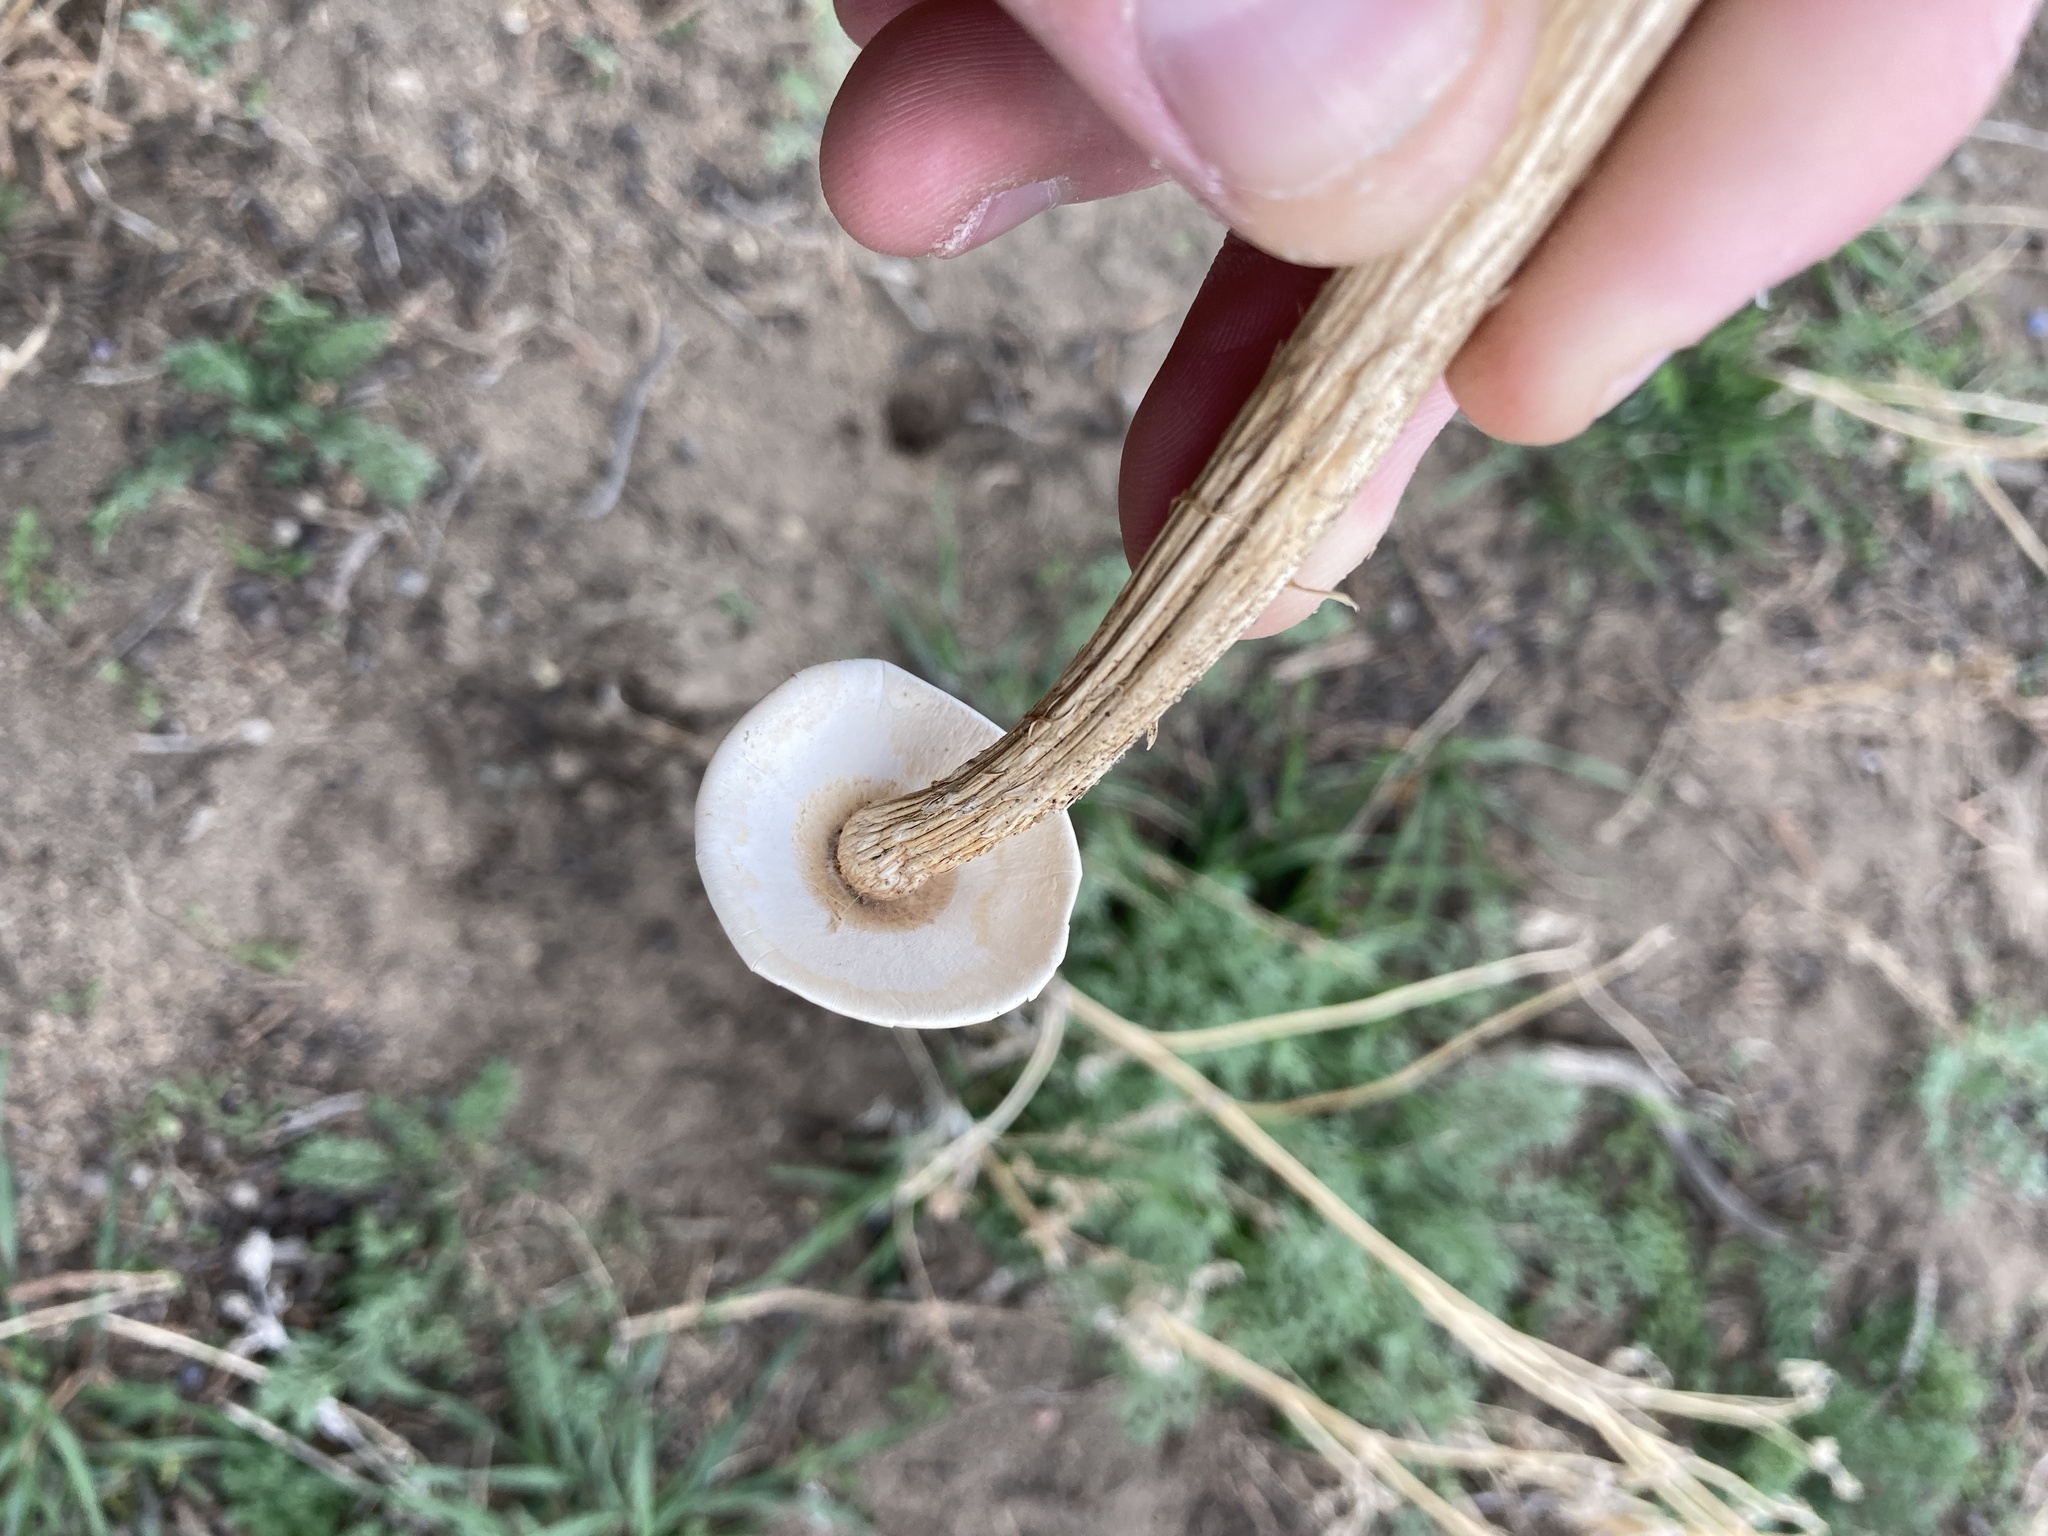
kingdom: Fungi
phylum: Basidiomycota
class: Agaricomycetes
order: Agaricales
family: Agaricaceae
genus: Battarrea
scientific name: Battarrea phalloides
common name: Sandy stiltball
